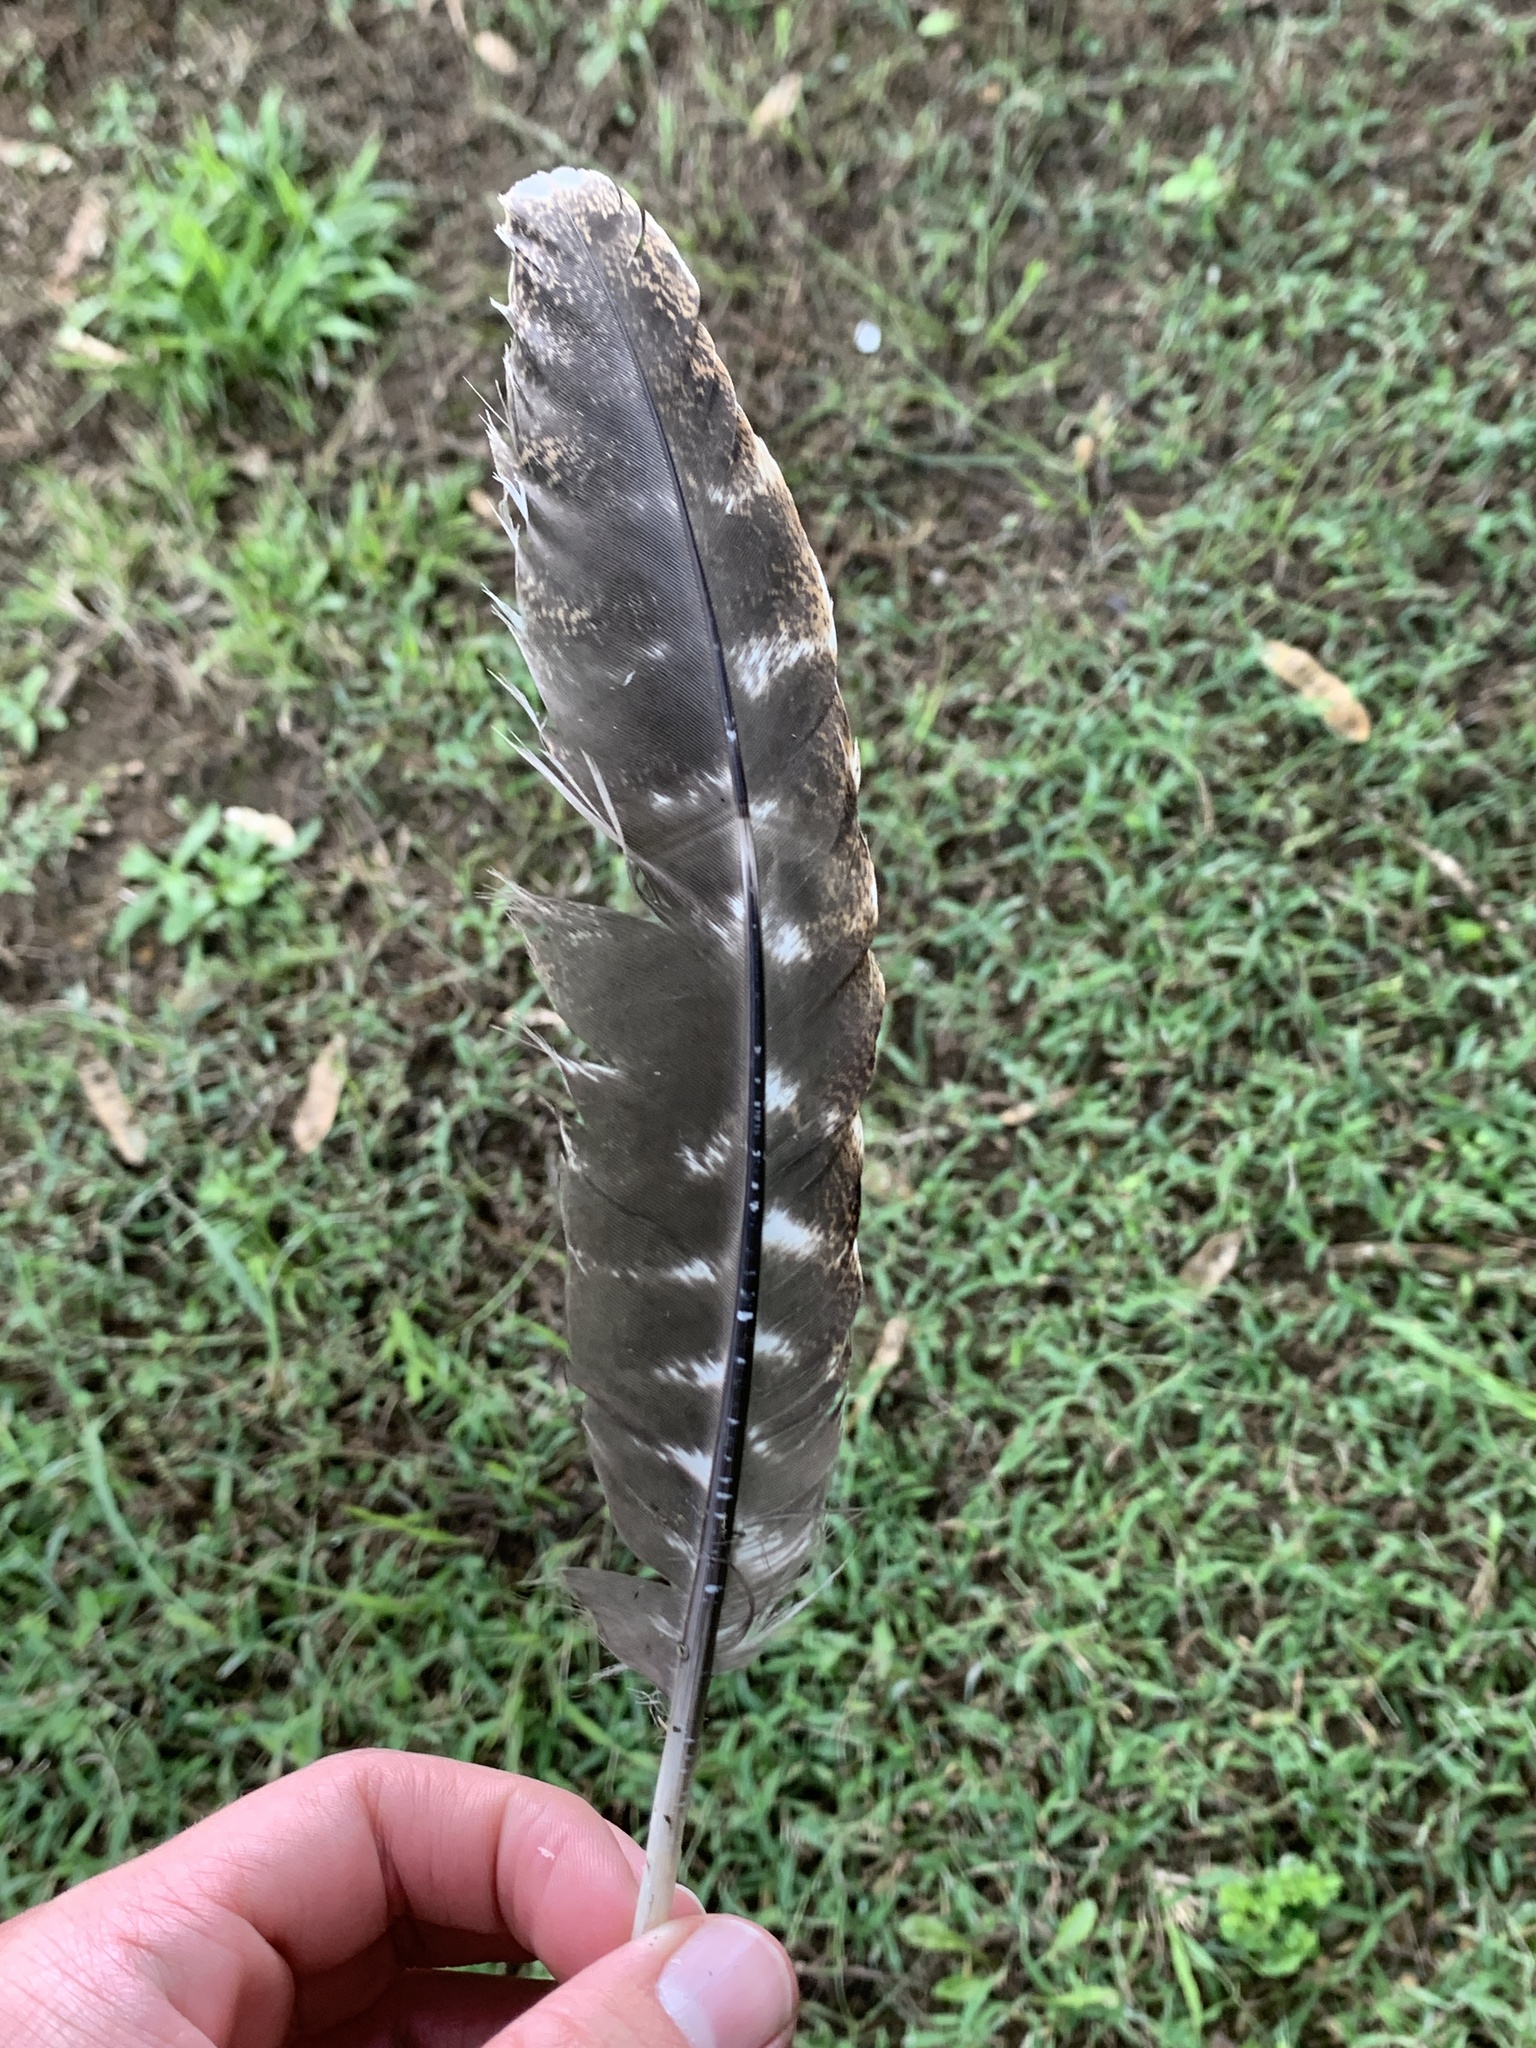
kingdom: Animalia
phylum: Chordata
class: Aves
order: Galliformes
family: Phasianidae
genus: Meleagris
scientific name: Meleagris gallopavo
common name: Wild turkey
